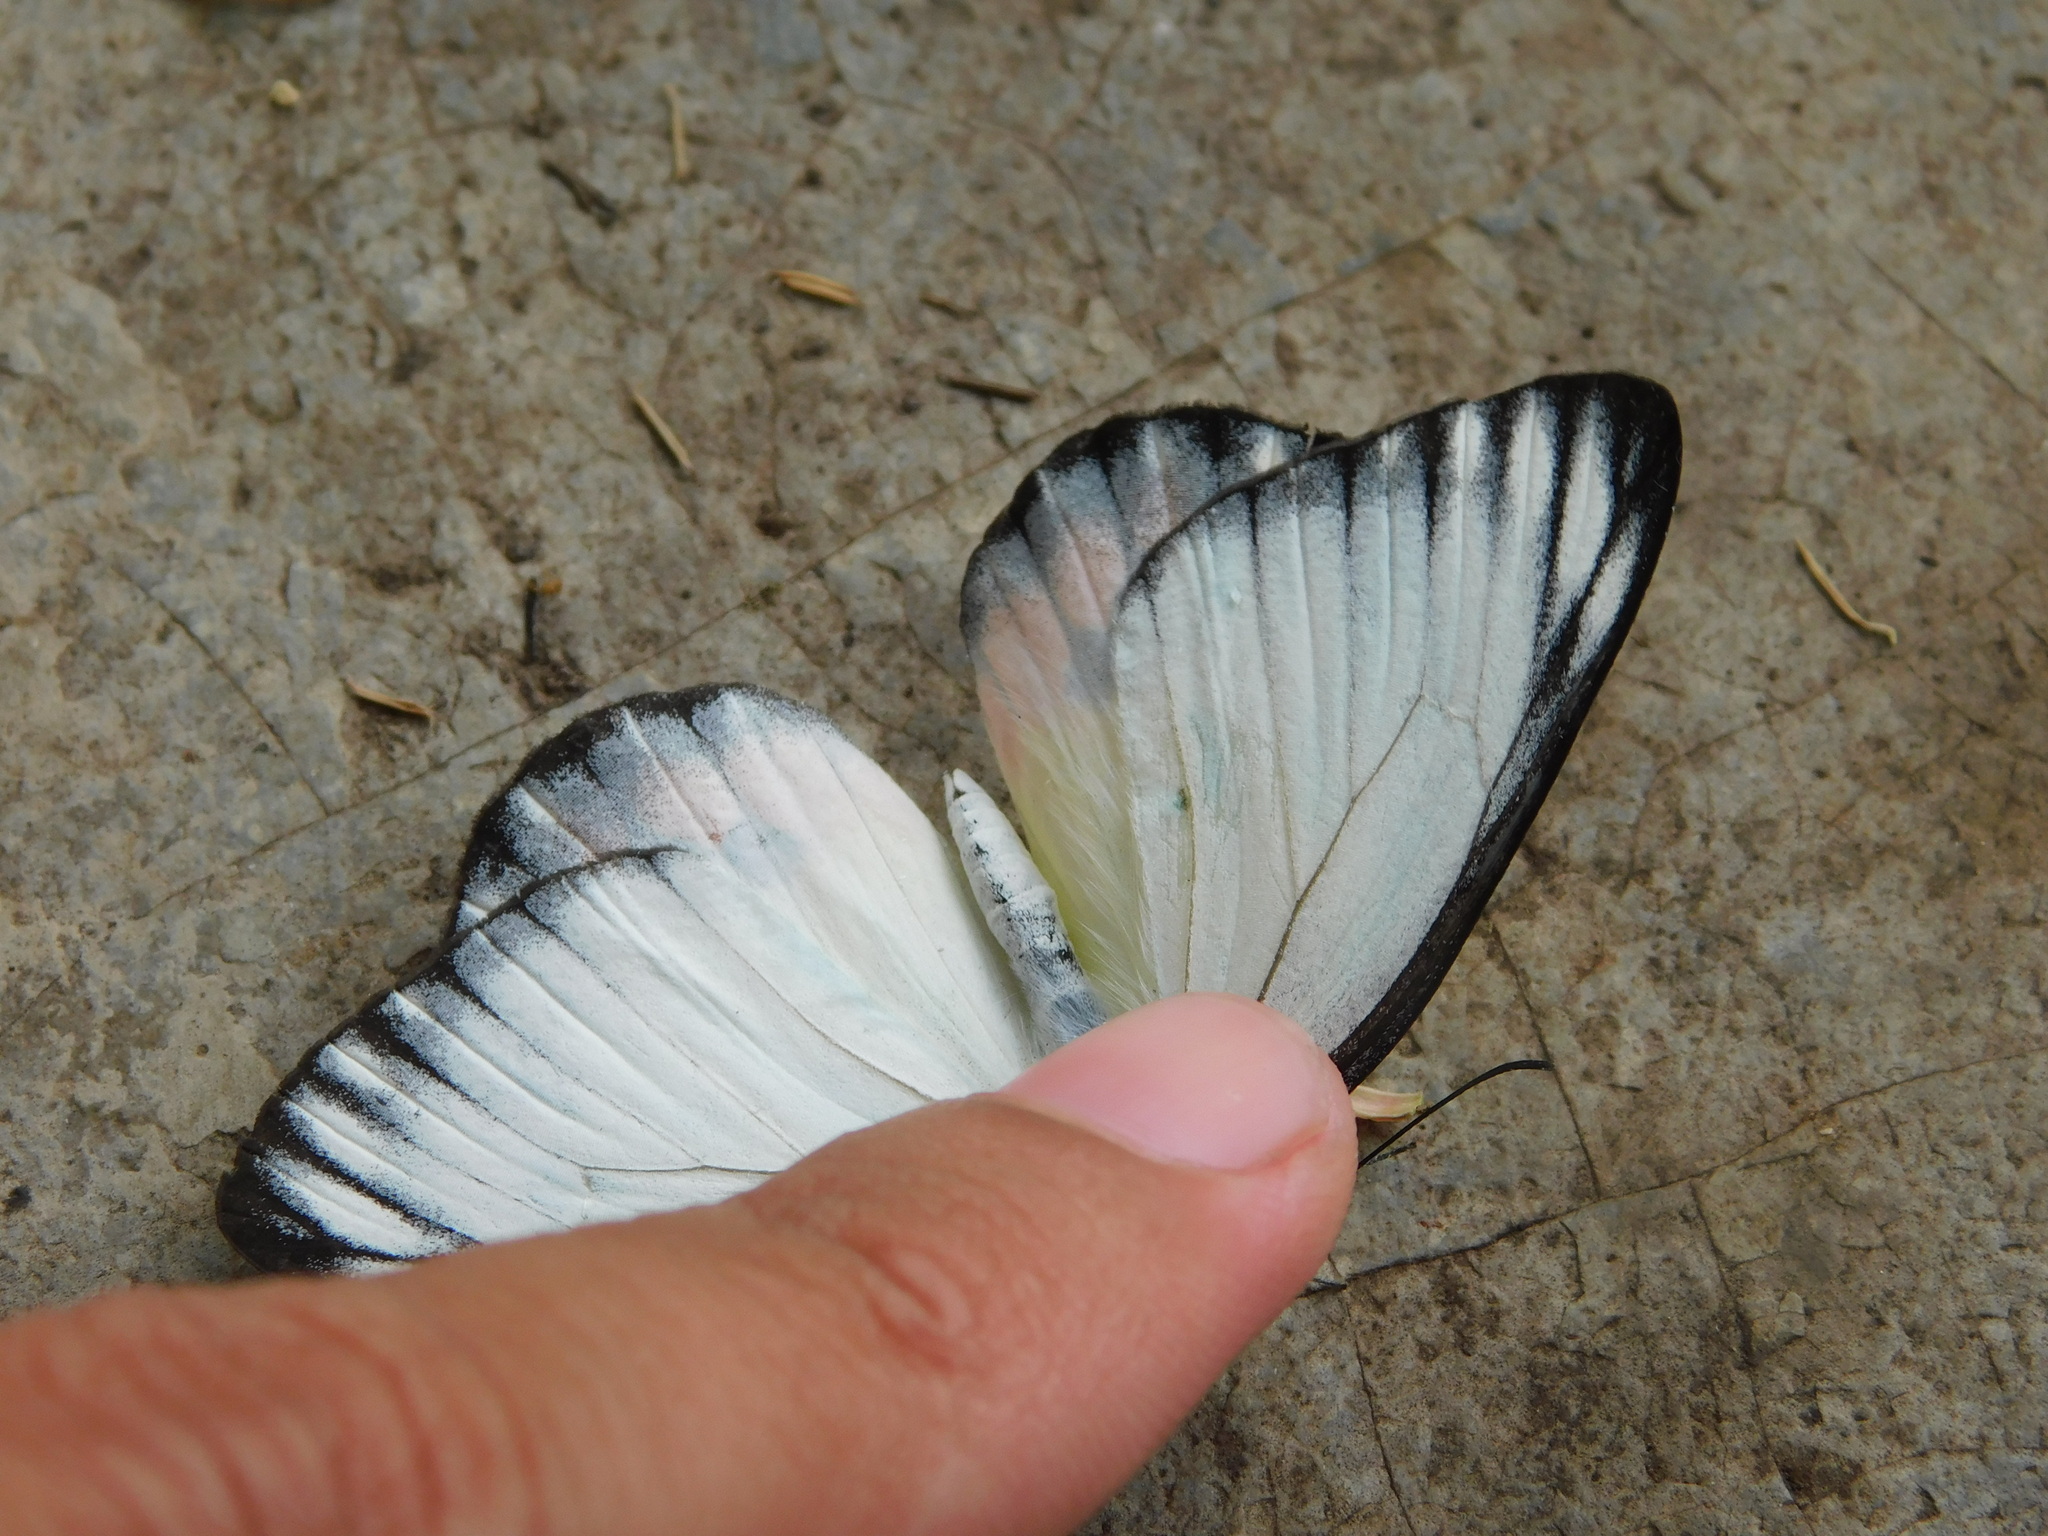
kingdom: Animalia
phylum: Arthropoda
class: Insecta
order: Lepidoptera
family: Pieridae
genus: Delias
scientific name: Delias periboea
